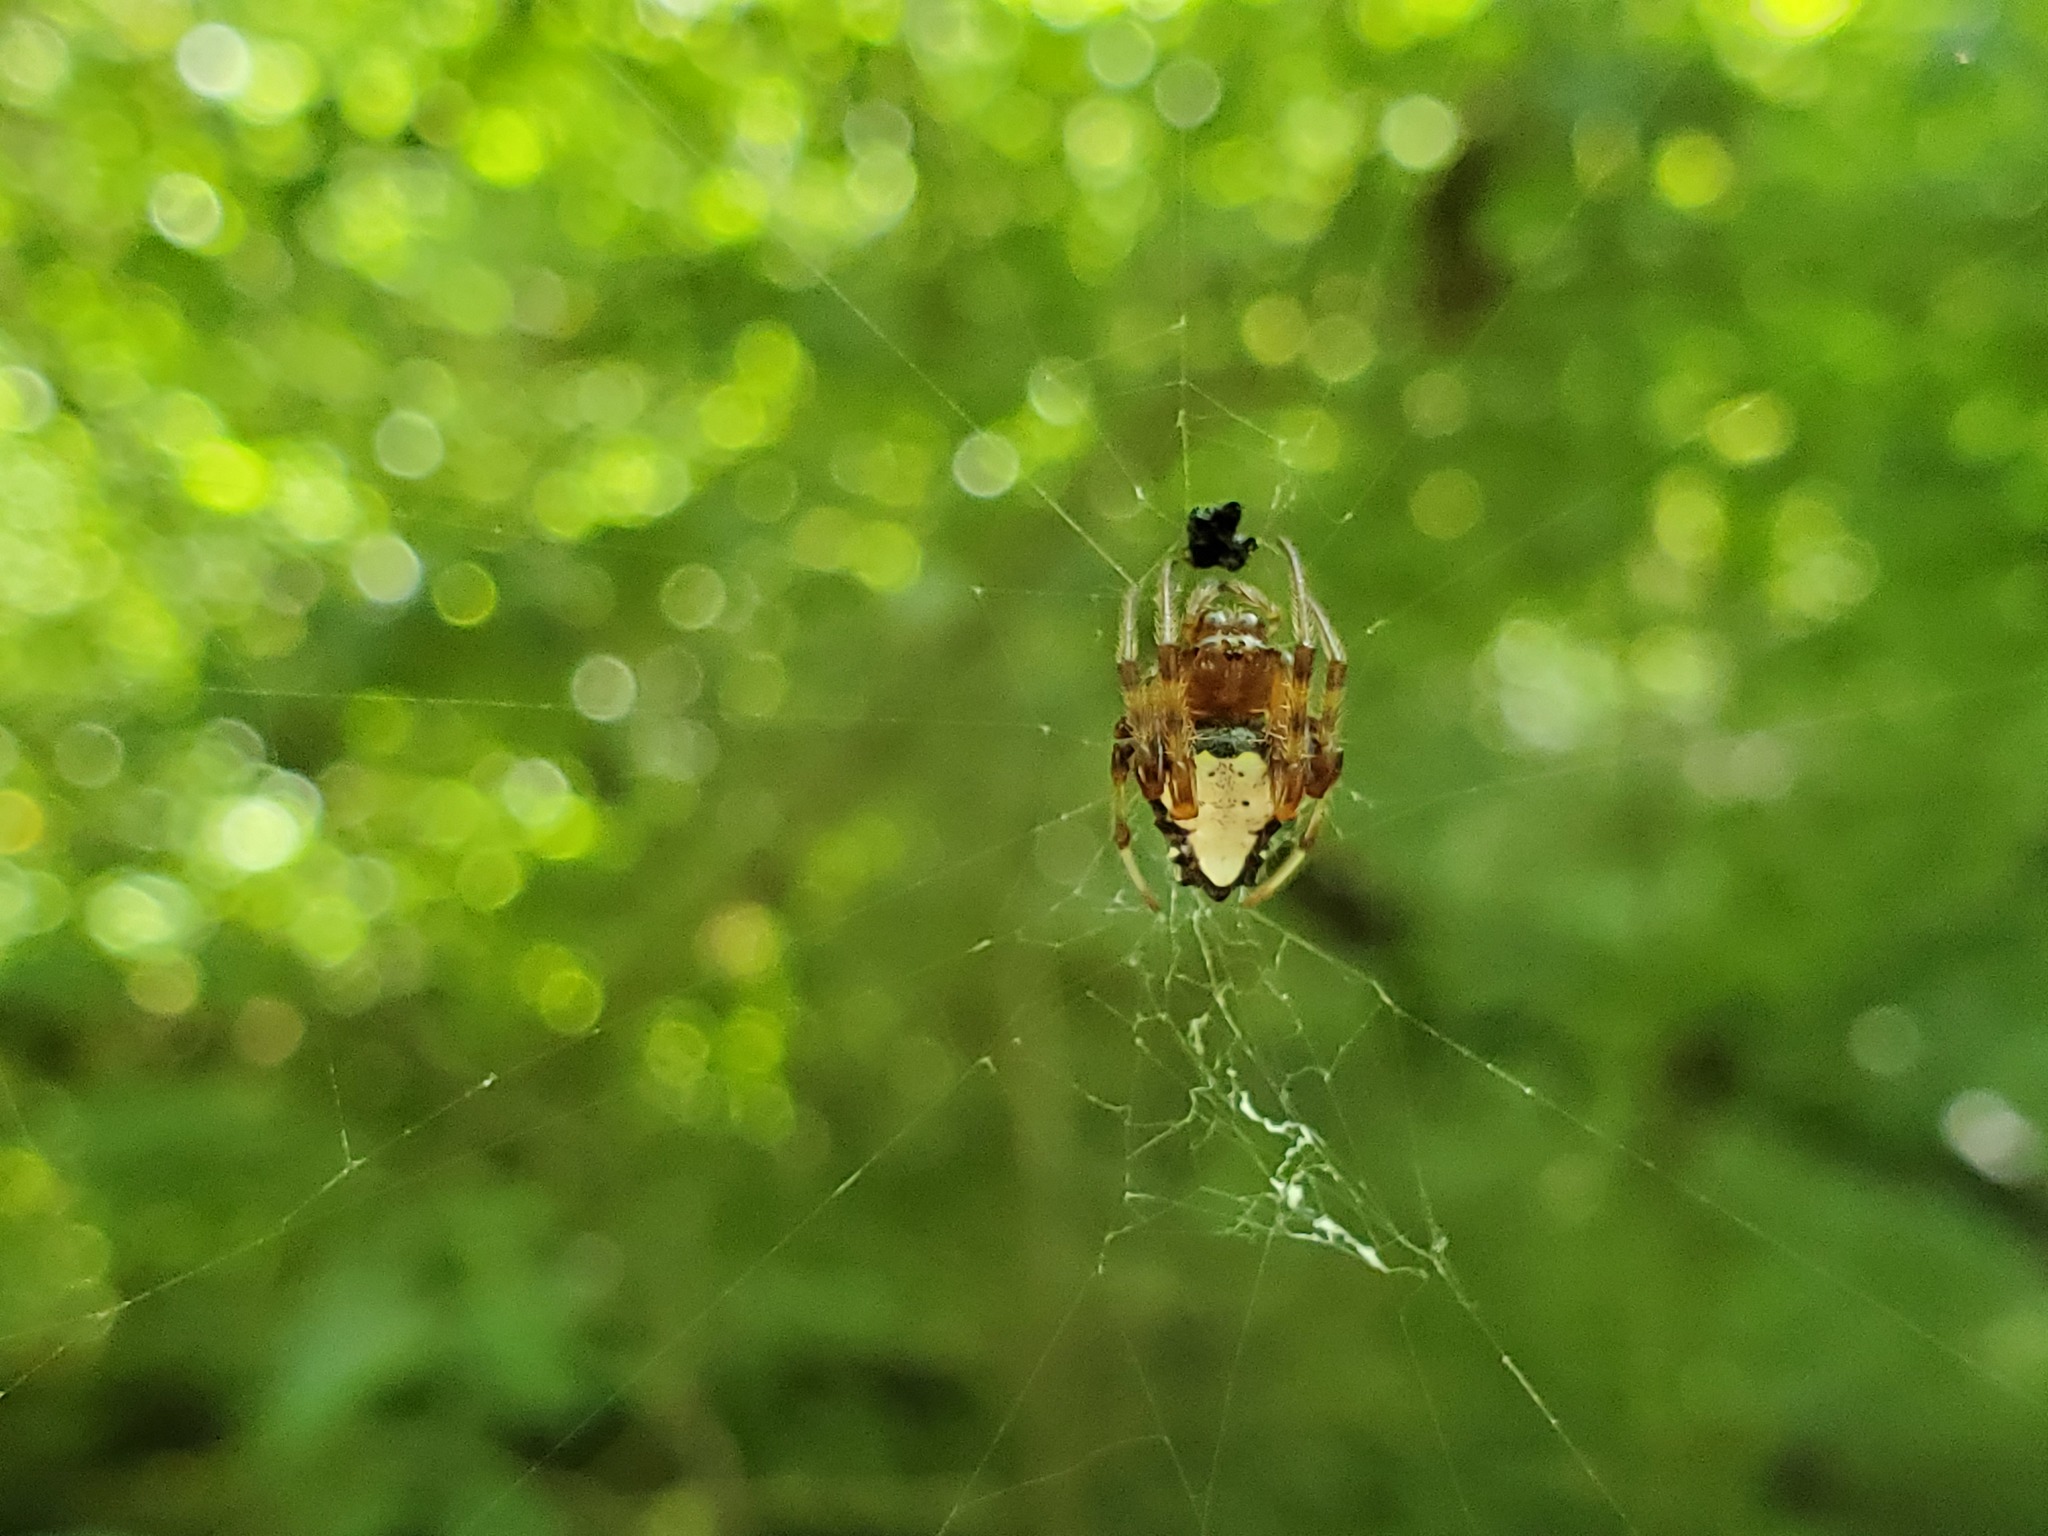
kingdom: Animalia
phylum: Arthropoda
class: Arachnida
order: Araneae
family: Araneidae
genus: Verrucosa
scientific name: Verrucosa arenata
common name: Orb weavers
